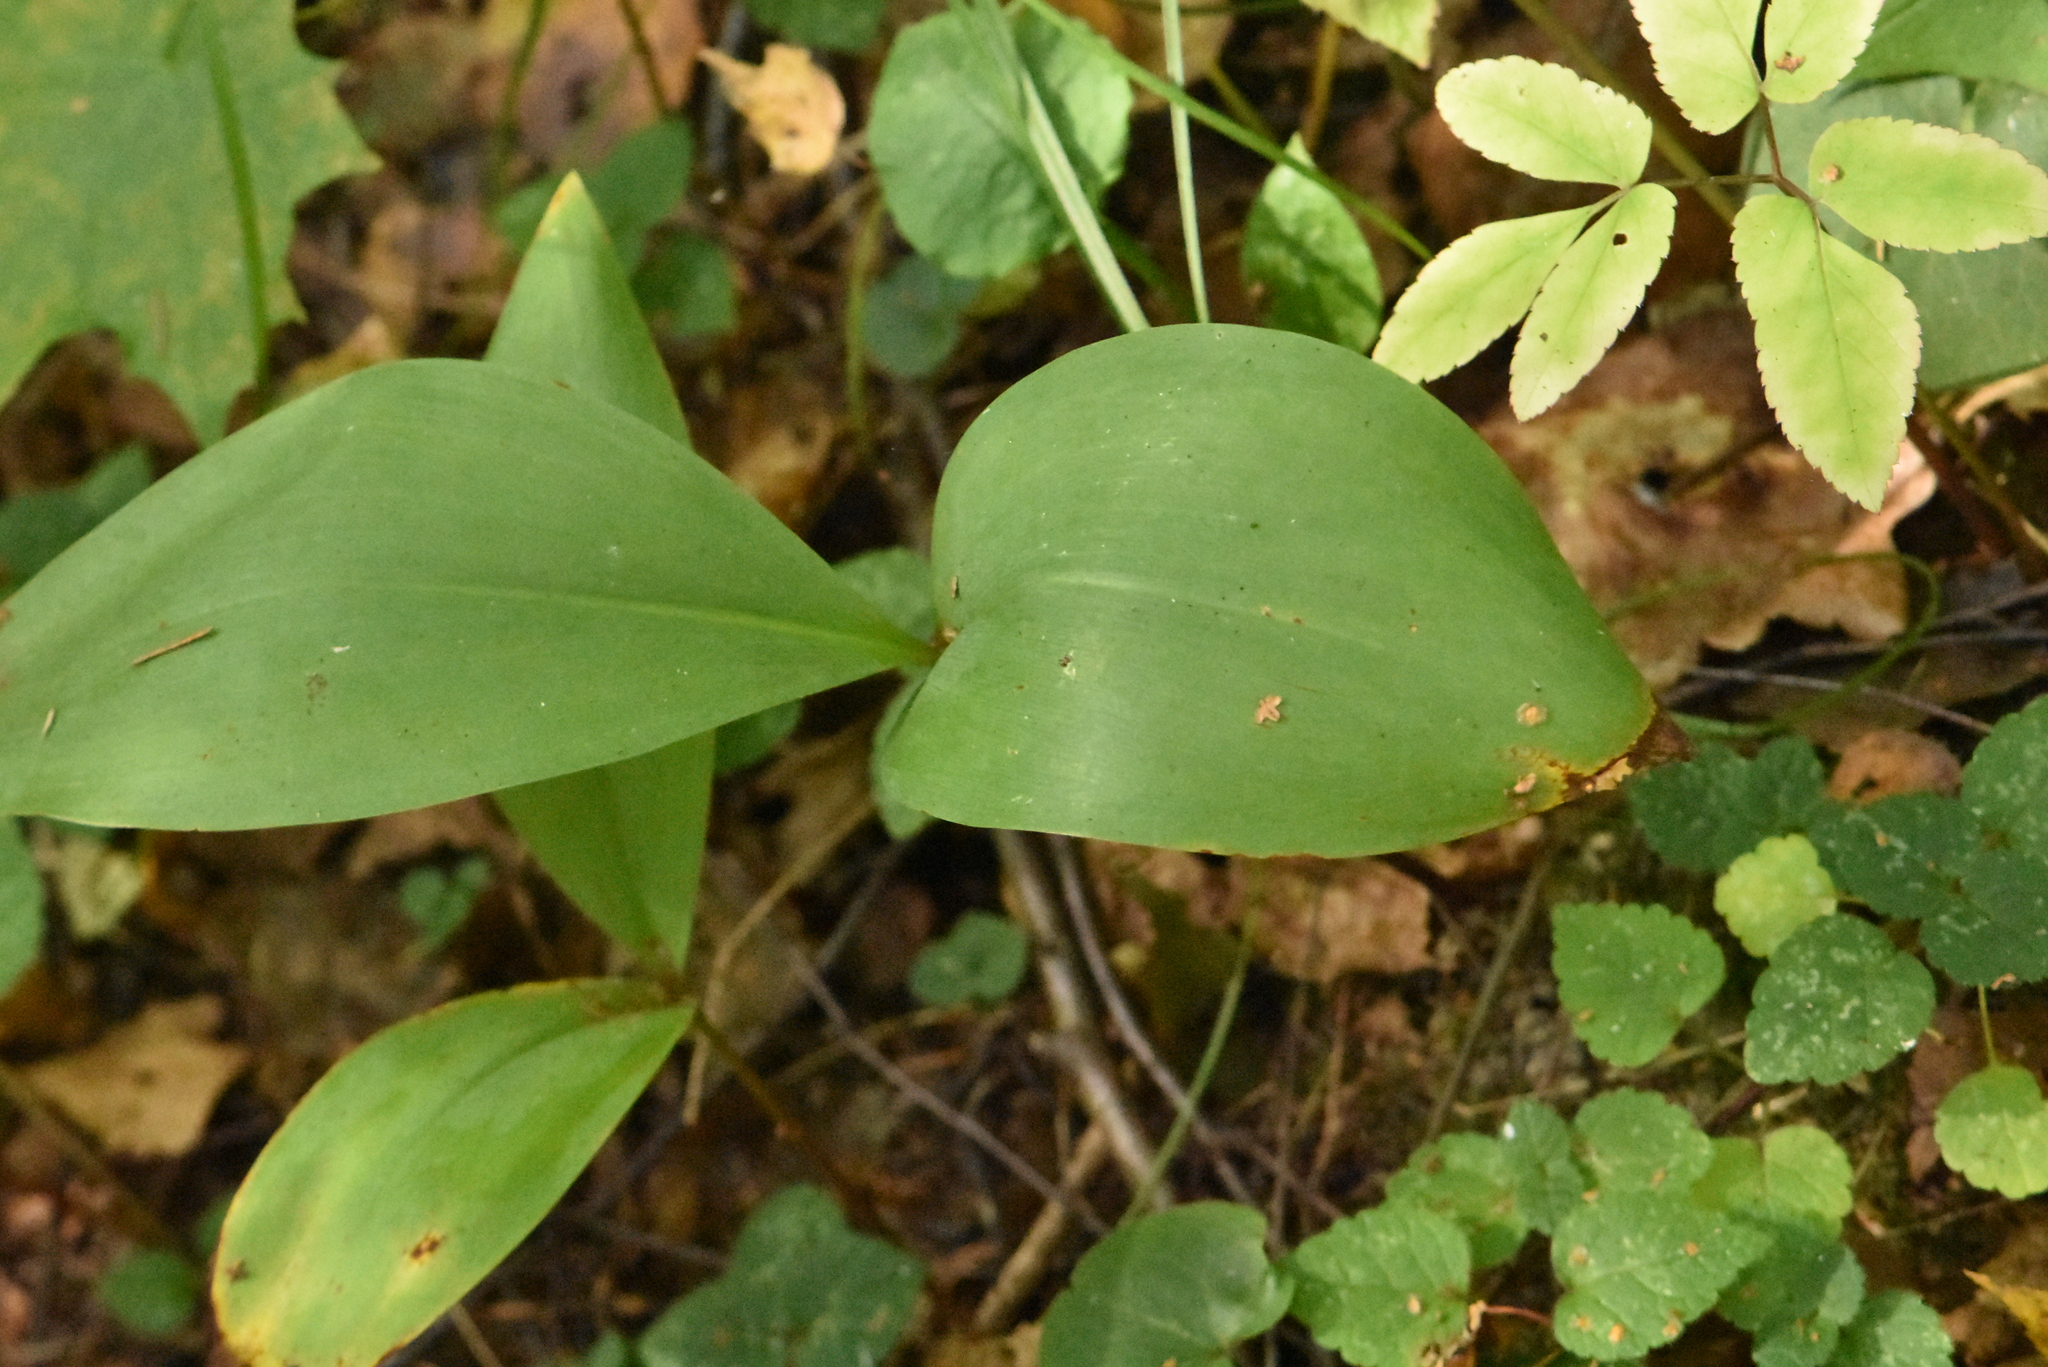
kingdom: Plantae
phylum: Tracheophyta
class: Liliopsida
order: Asparagales
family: Asparagaceae
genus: Convallaria
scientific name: Convallaria majalis
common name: Lily-of-the-valley
